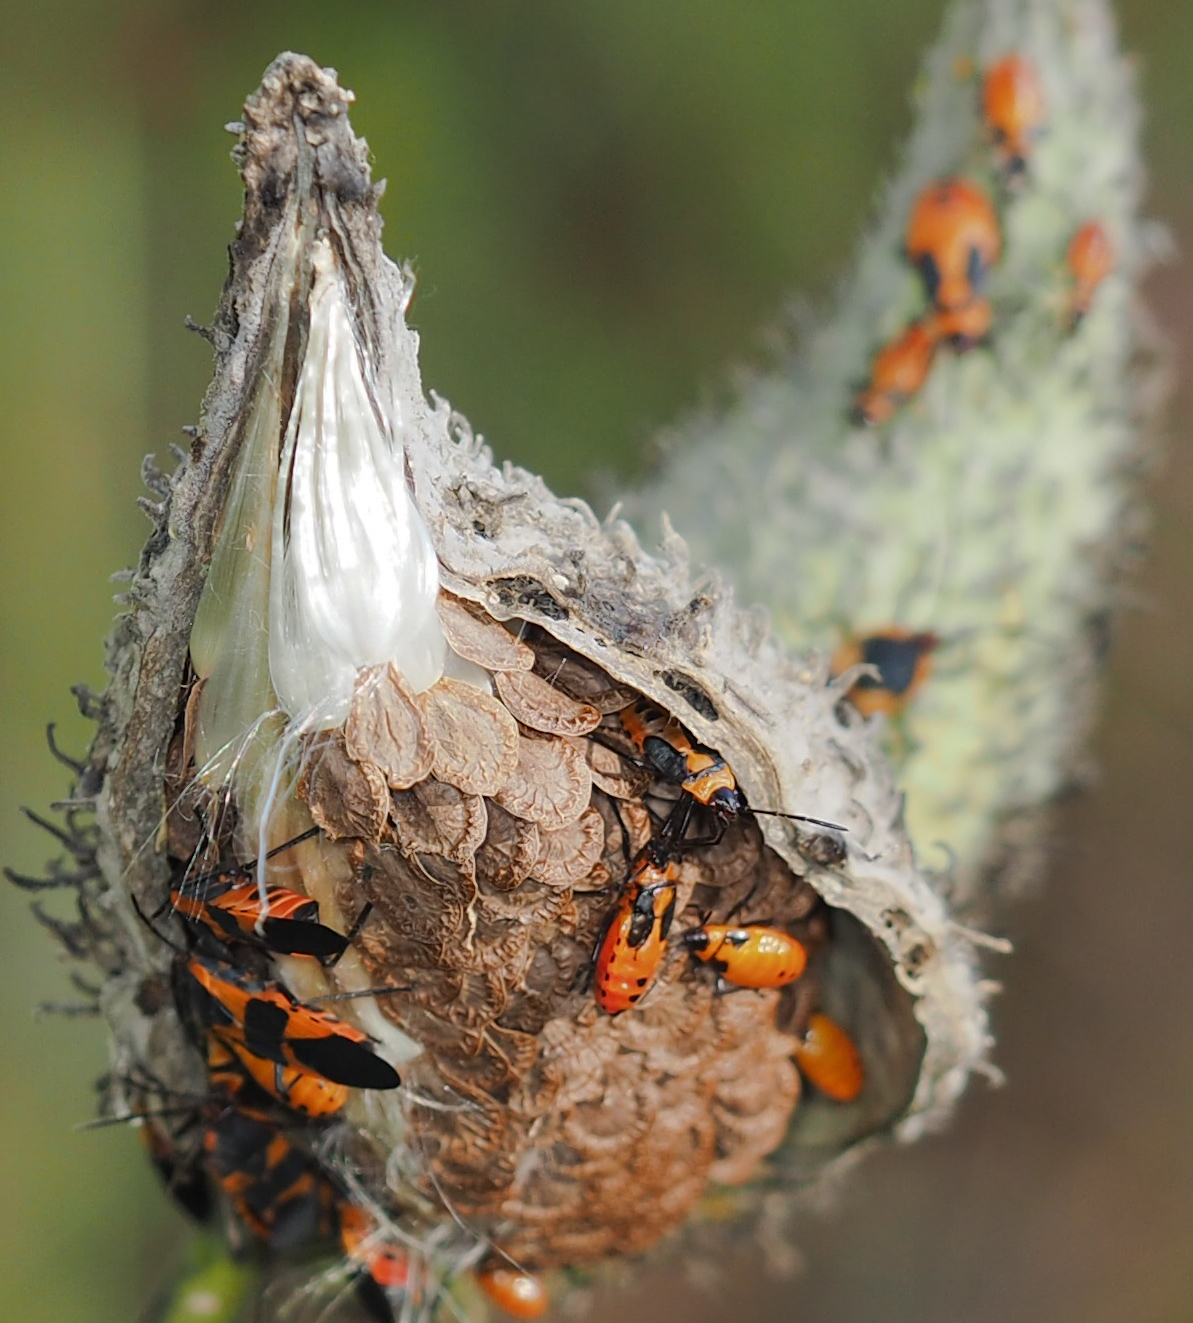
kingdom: Plantae
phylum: Tracheophyta
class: Magnoliopsida
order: Gentianales
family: Apocynaceae
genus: Asclepias
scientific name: Asclepias syriaca
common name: Common milkweed
